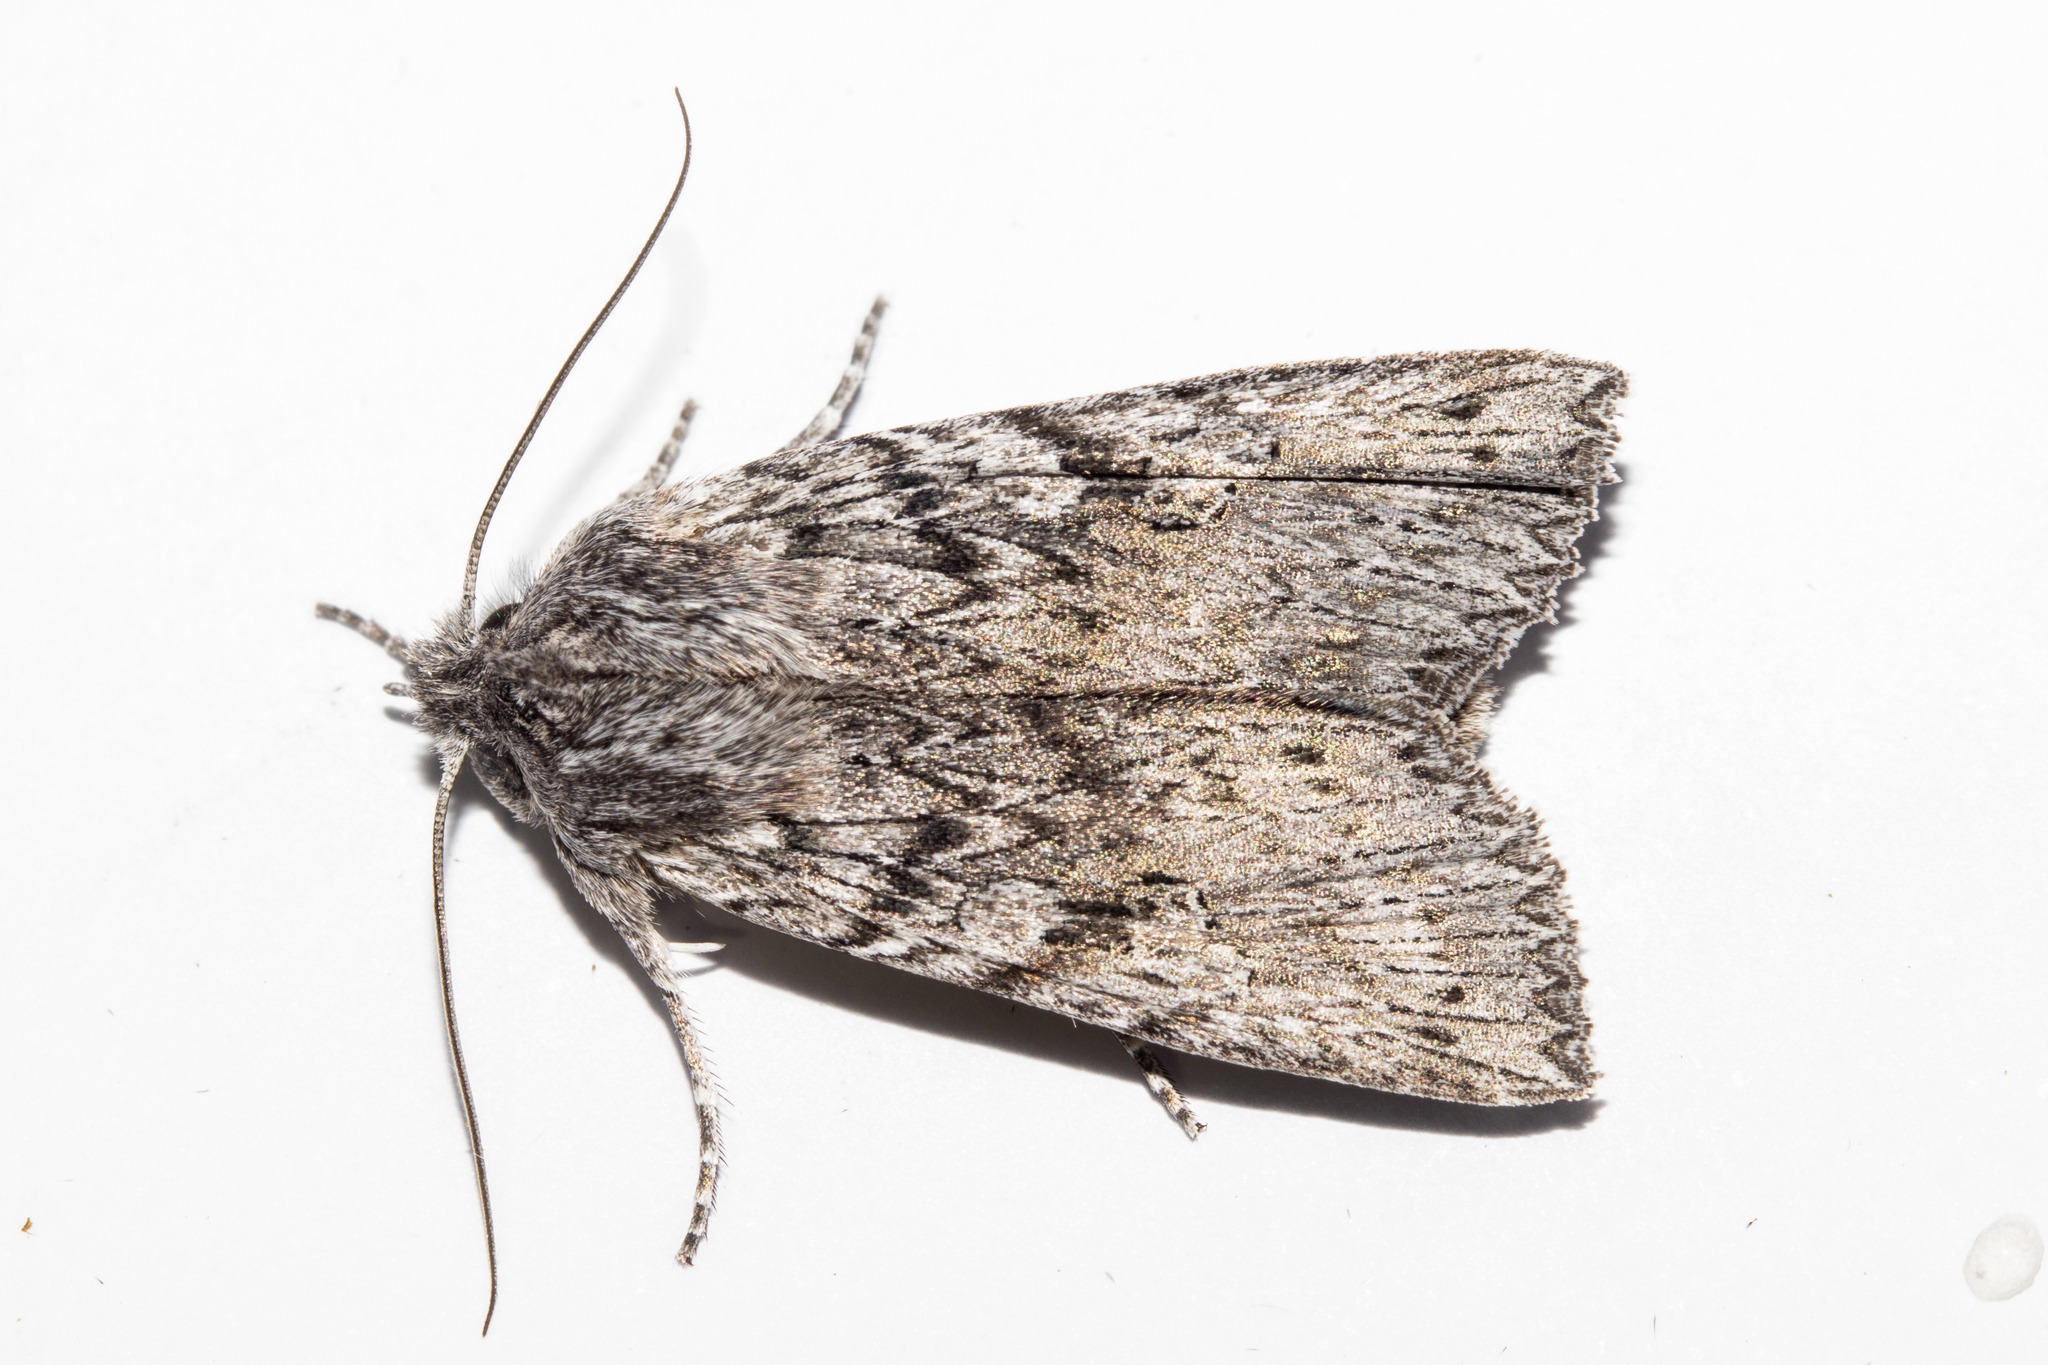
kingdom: Animalia
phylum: Arthropoda
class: Insecta
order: Lepidoptera
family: Noctuidae
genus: Physetica
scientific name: Physetica phricias
